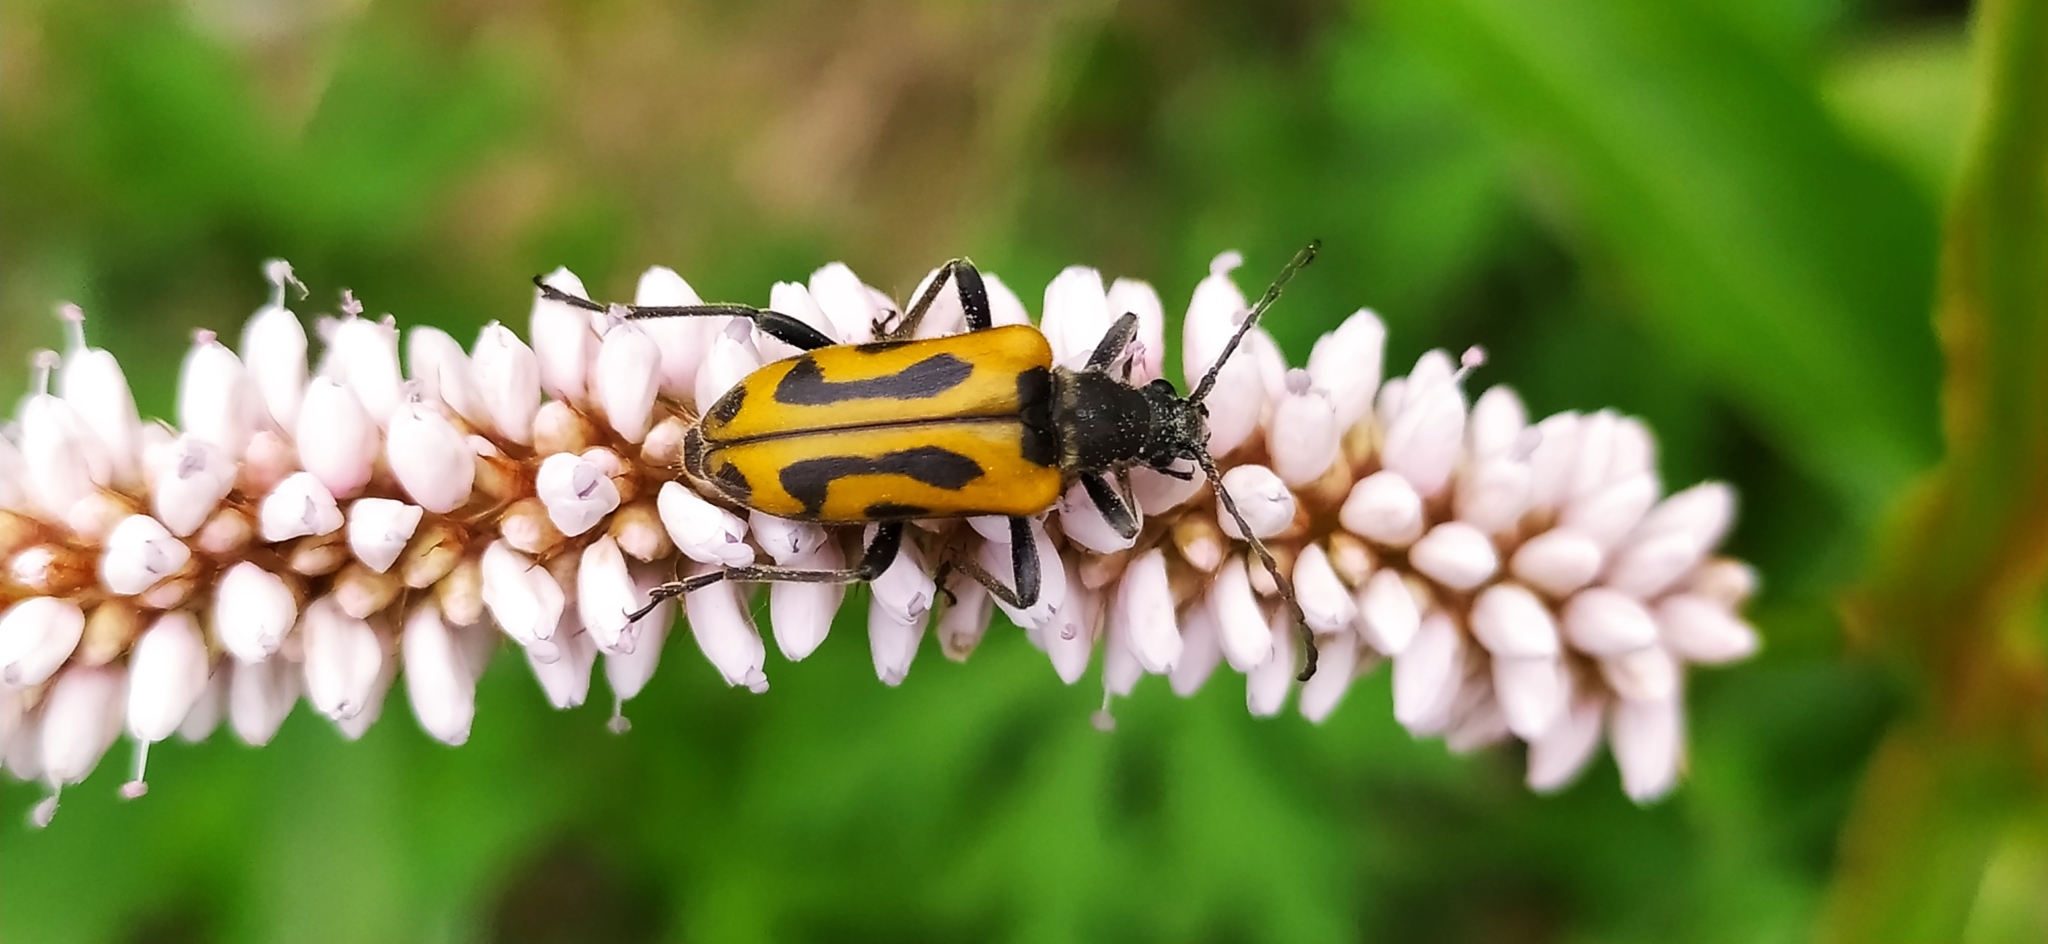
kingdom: Animalia
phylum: Arthropoda
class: Insecta
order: Coleoptera
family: Cerambycidae
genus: Brachyta
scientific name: Brachyta interrogationis
